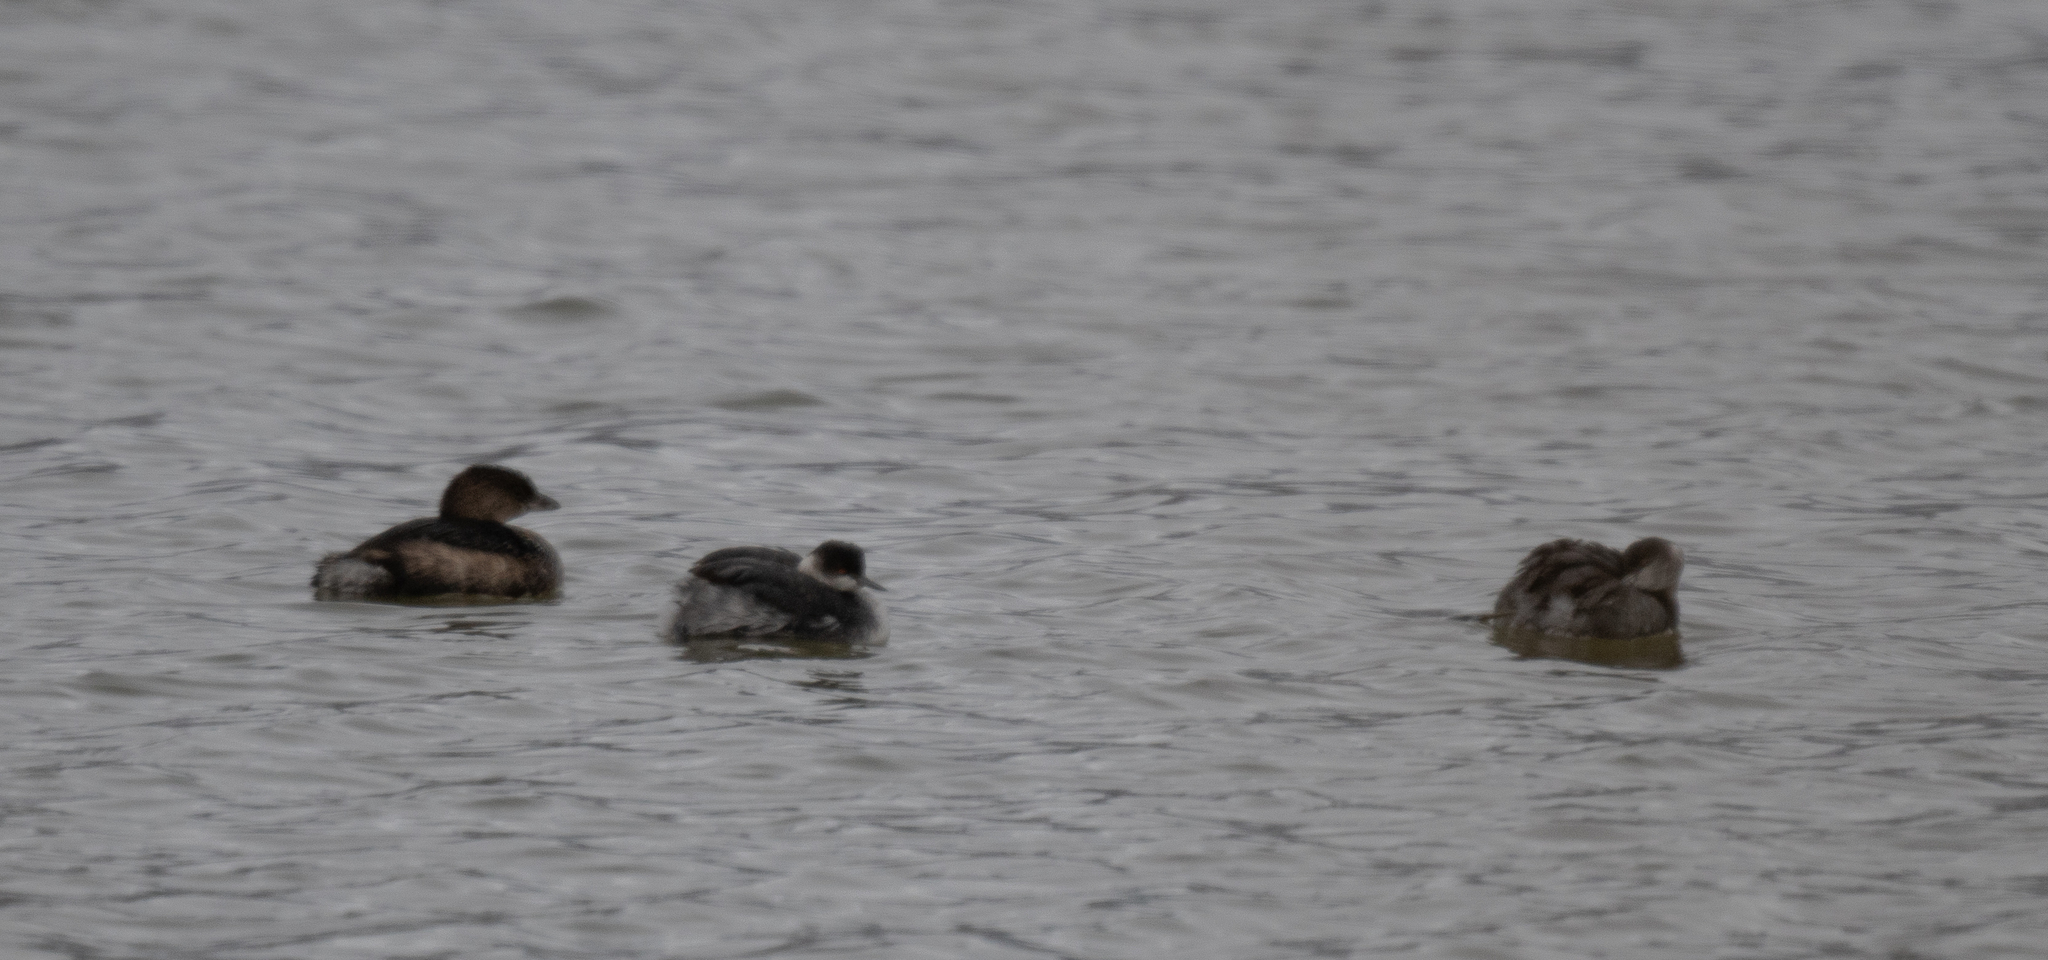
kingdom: Animalia
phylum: Chordata
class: Aves
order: Podicipediformes
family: Podicipedidae
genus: Podiceps
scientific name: Podiceps nigricollis
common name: Black-necked grebe
